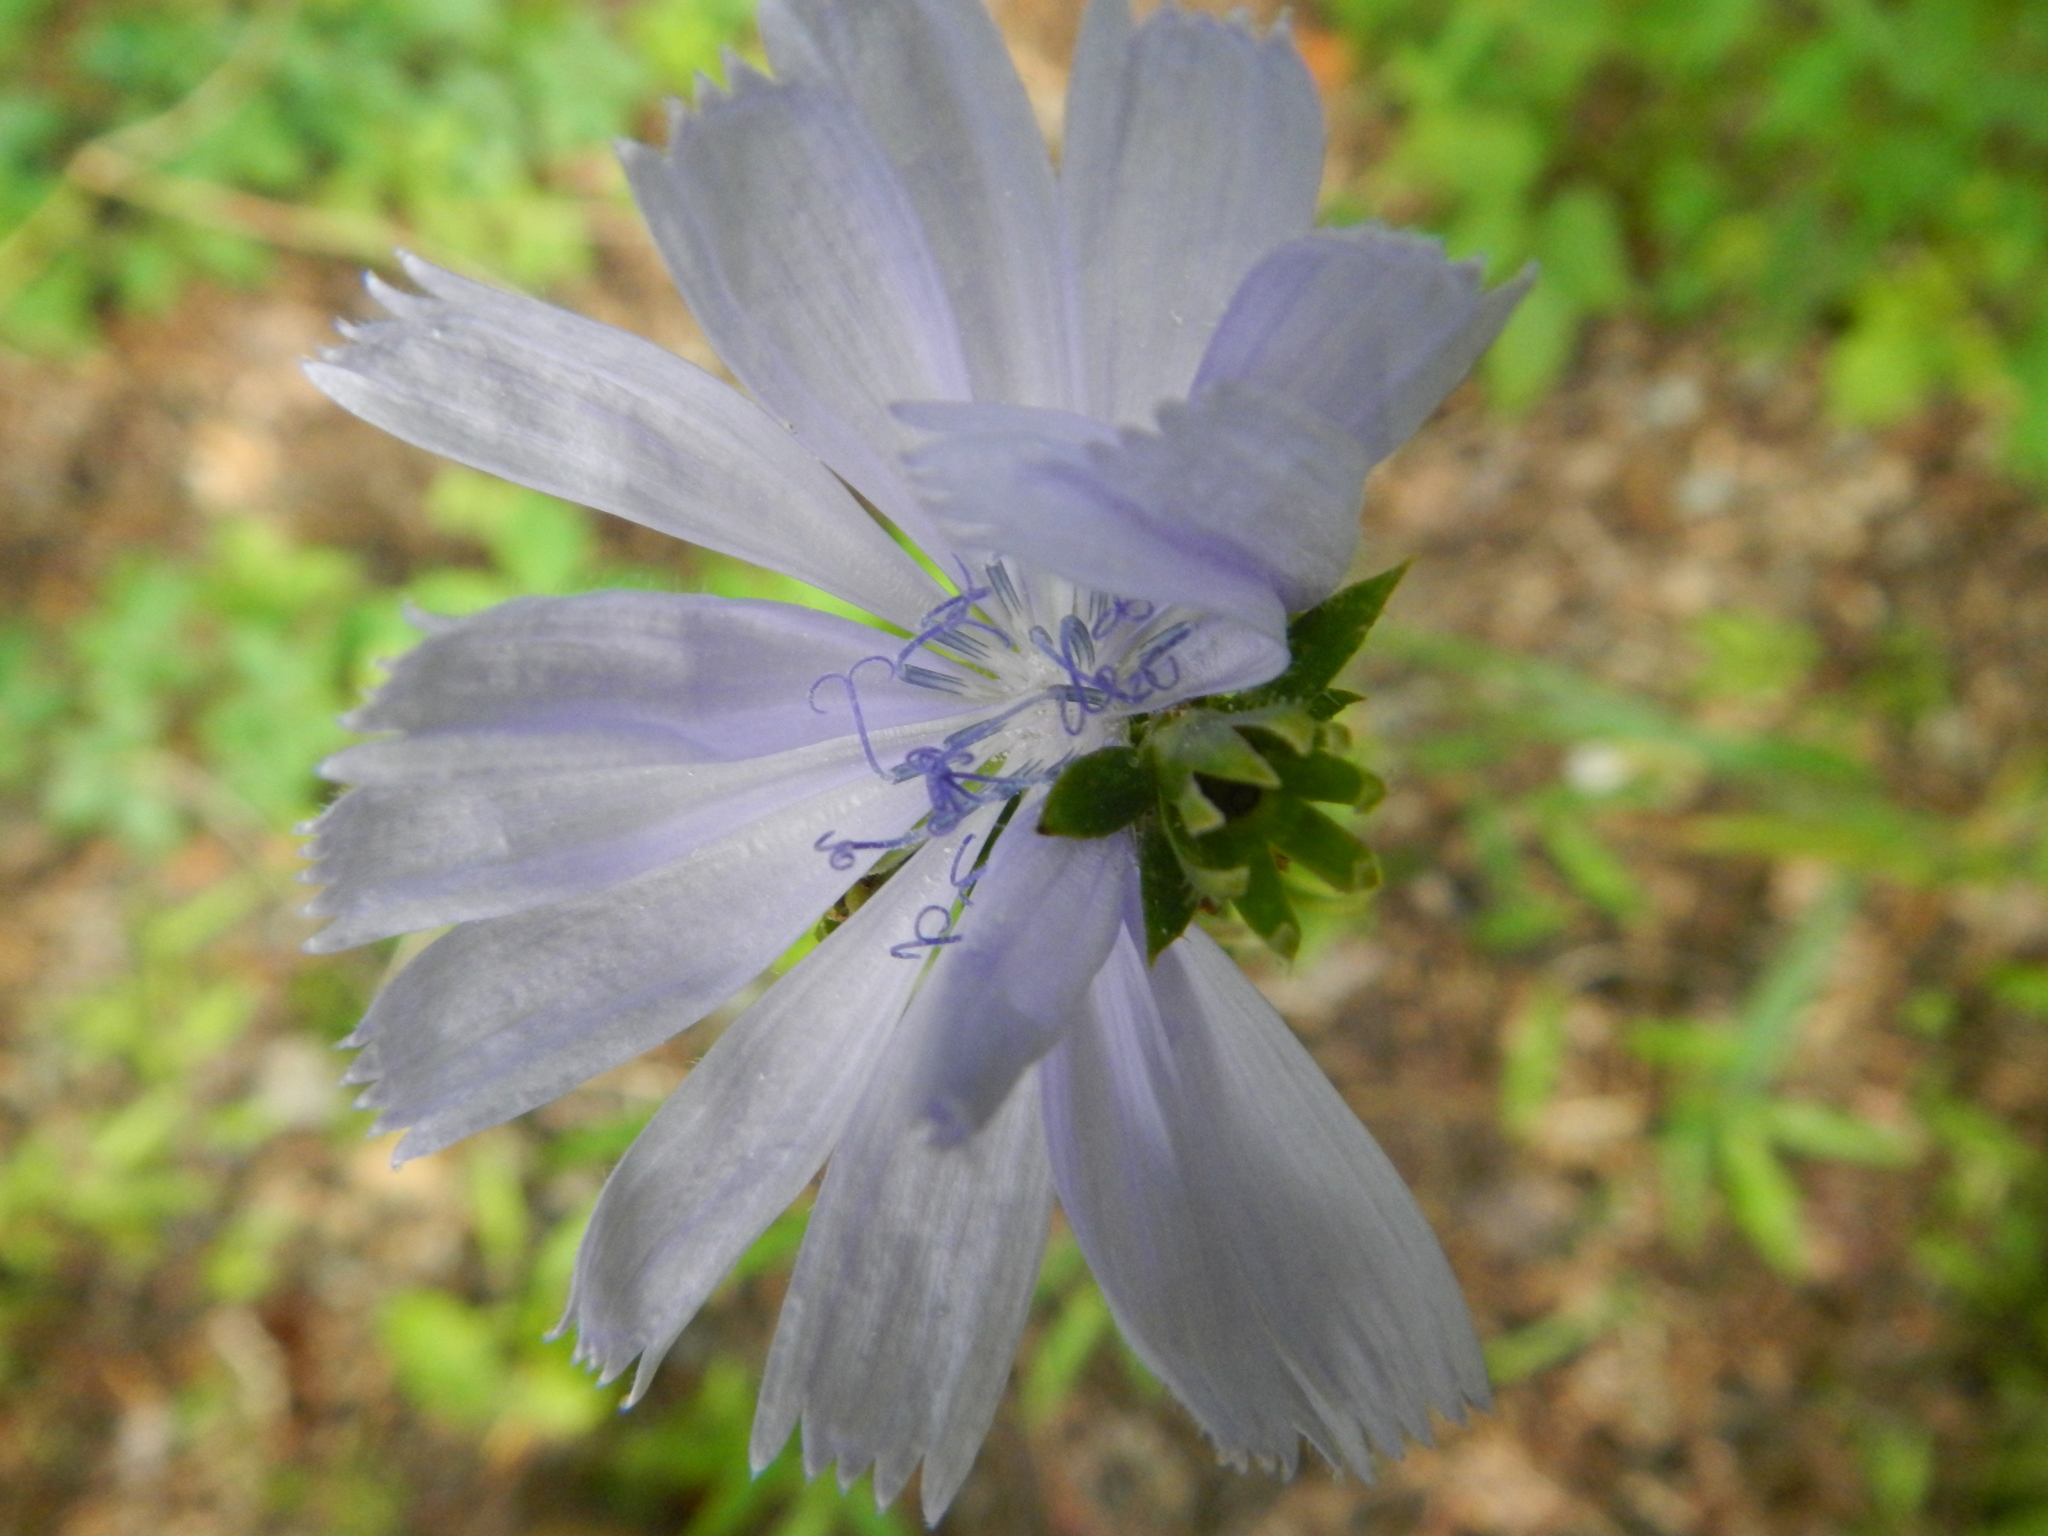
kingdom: Plantae
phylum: Tracheophyta
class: Magnoliopsida
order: Asterales
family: Asteraceae
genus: Cichorium
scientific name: Cichorium intybus
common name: Chicory
